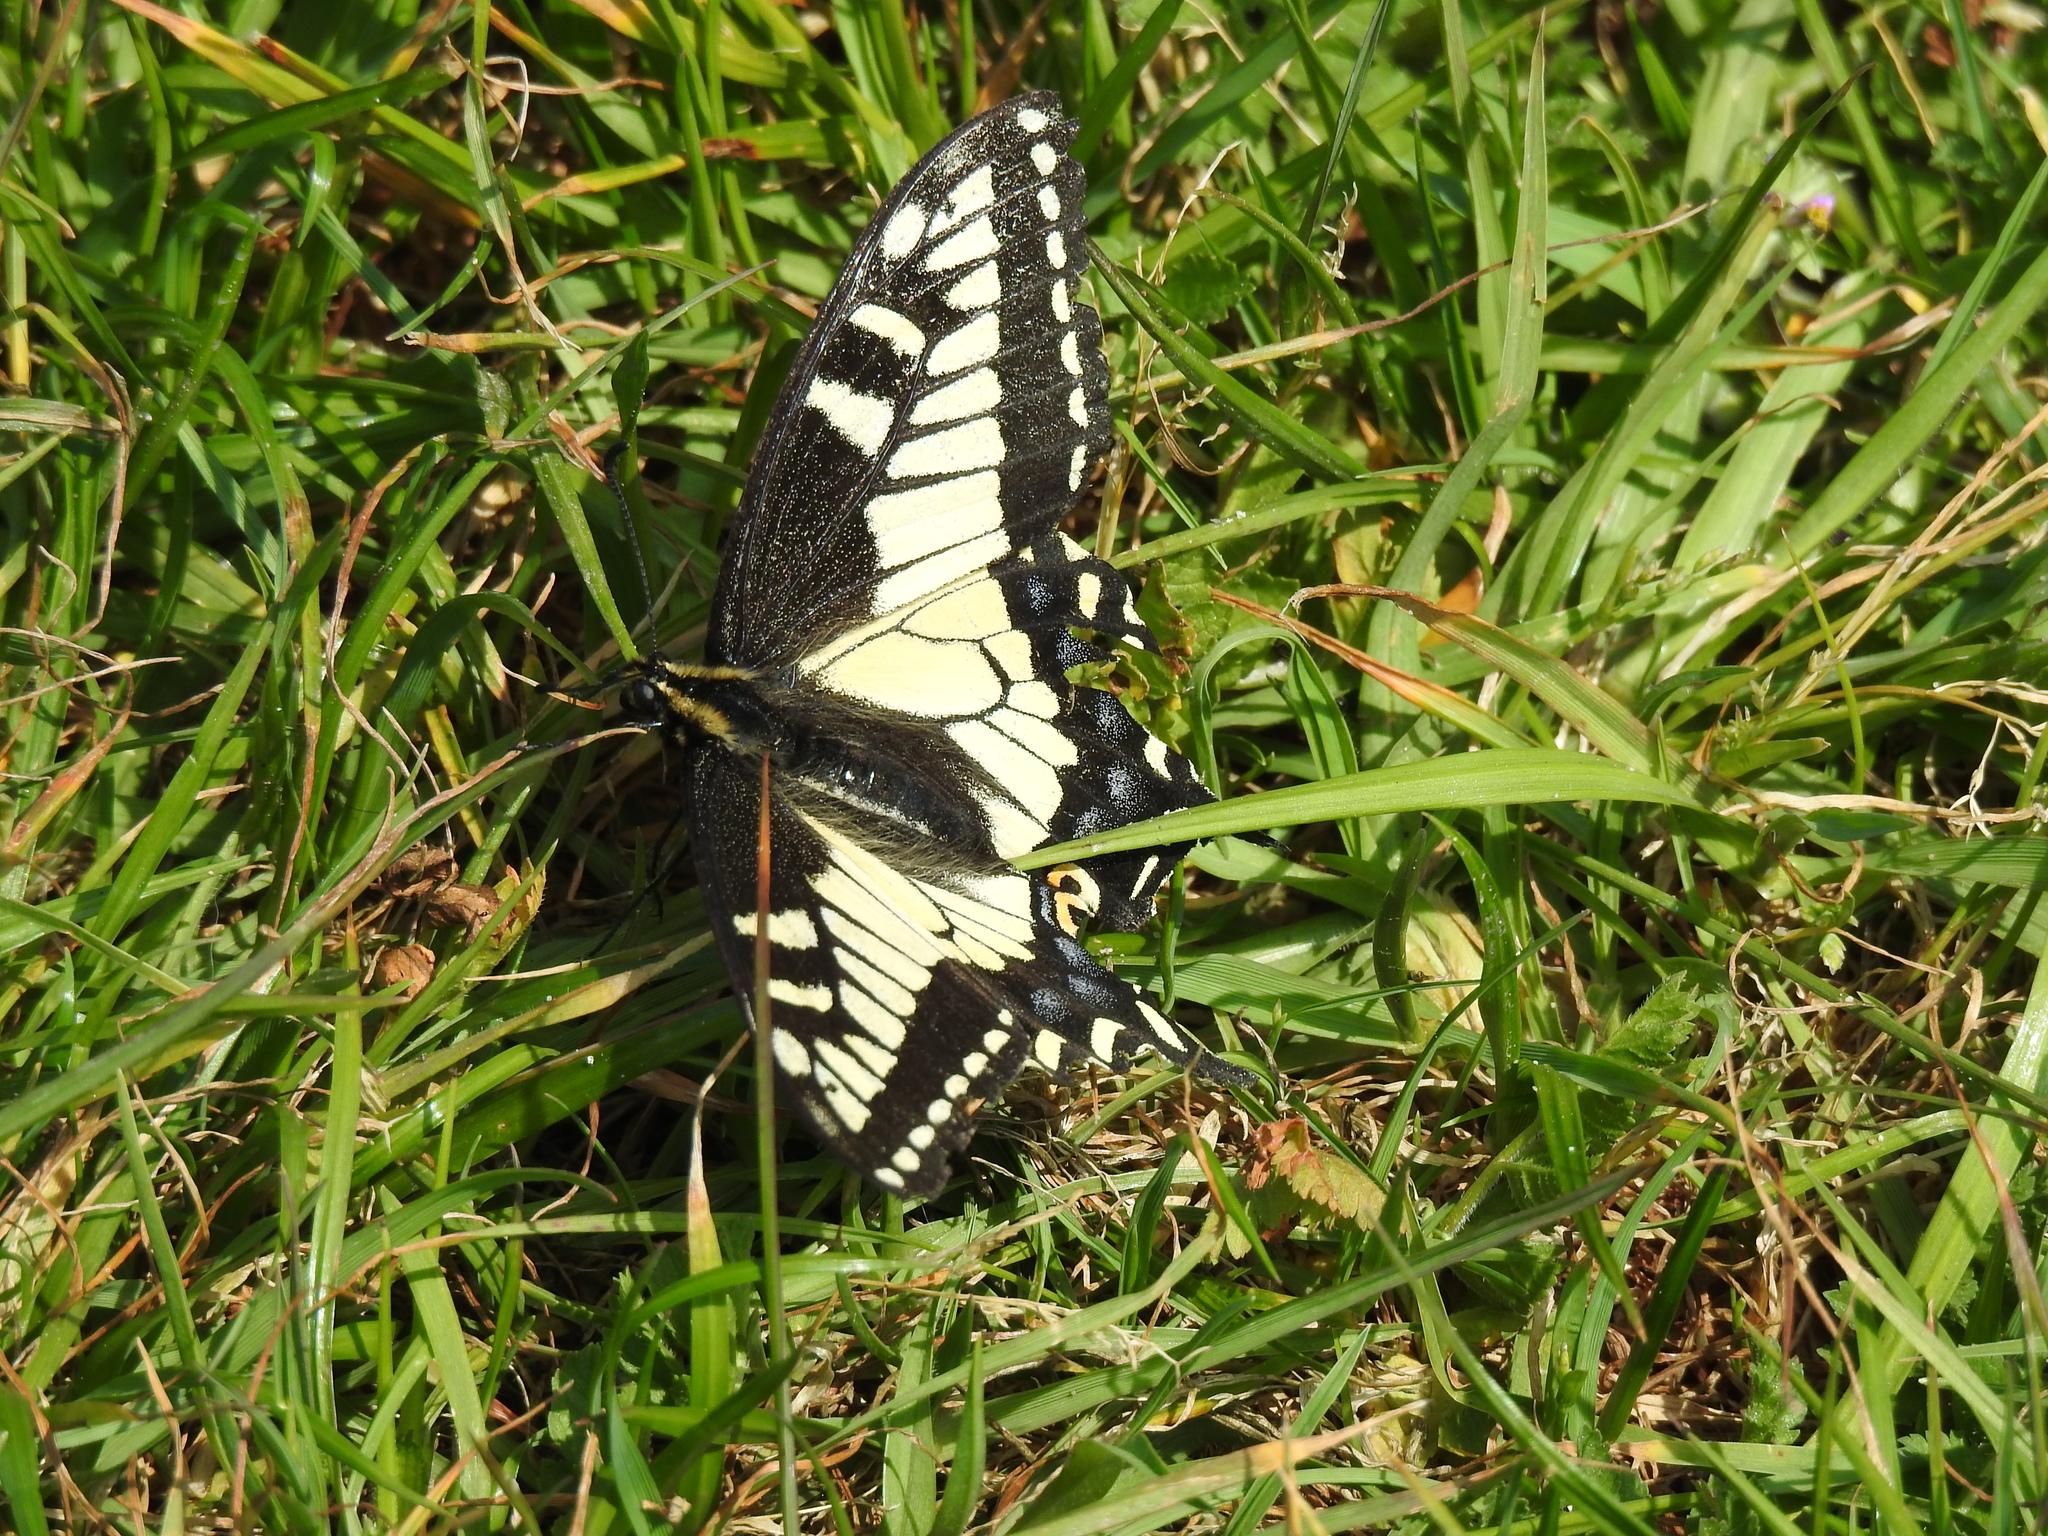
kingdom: Animalia
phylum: Arthropoda
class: Insecta
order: Lepidoptera
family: Papilionidae
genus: Papilio
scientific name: Papilio zelicaon
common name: Anise swallowtail
